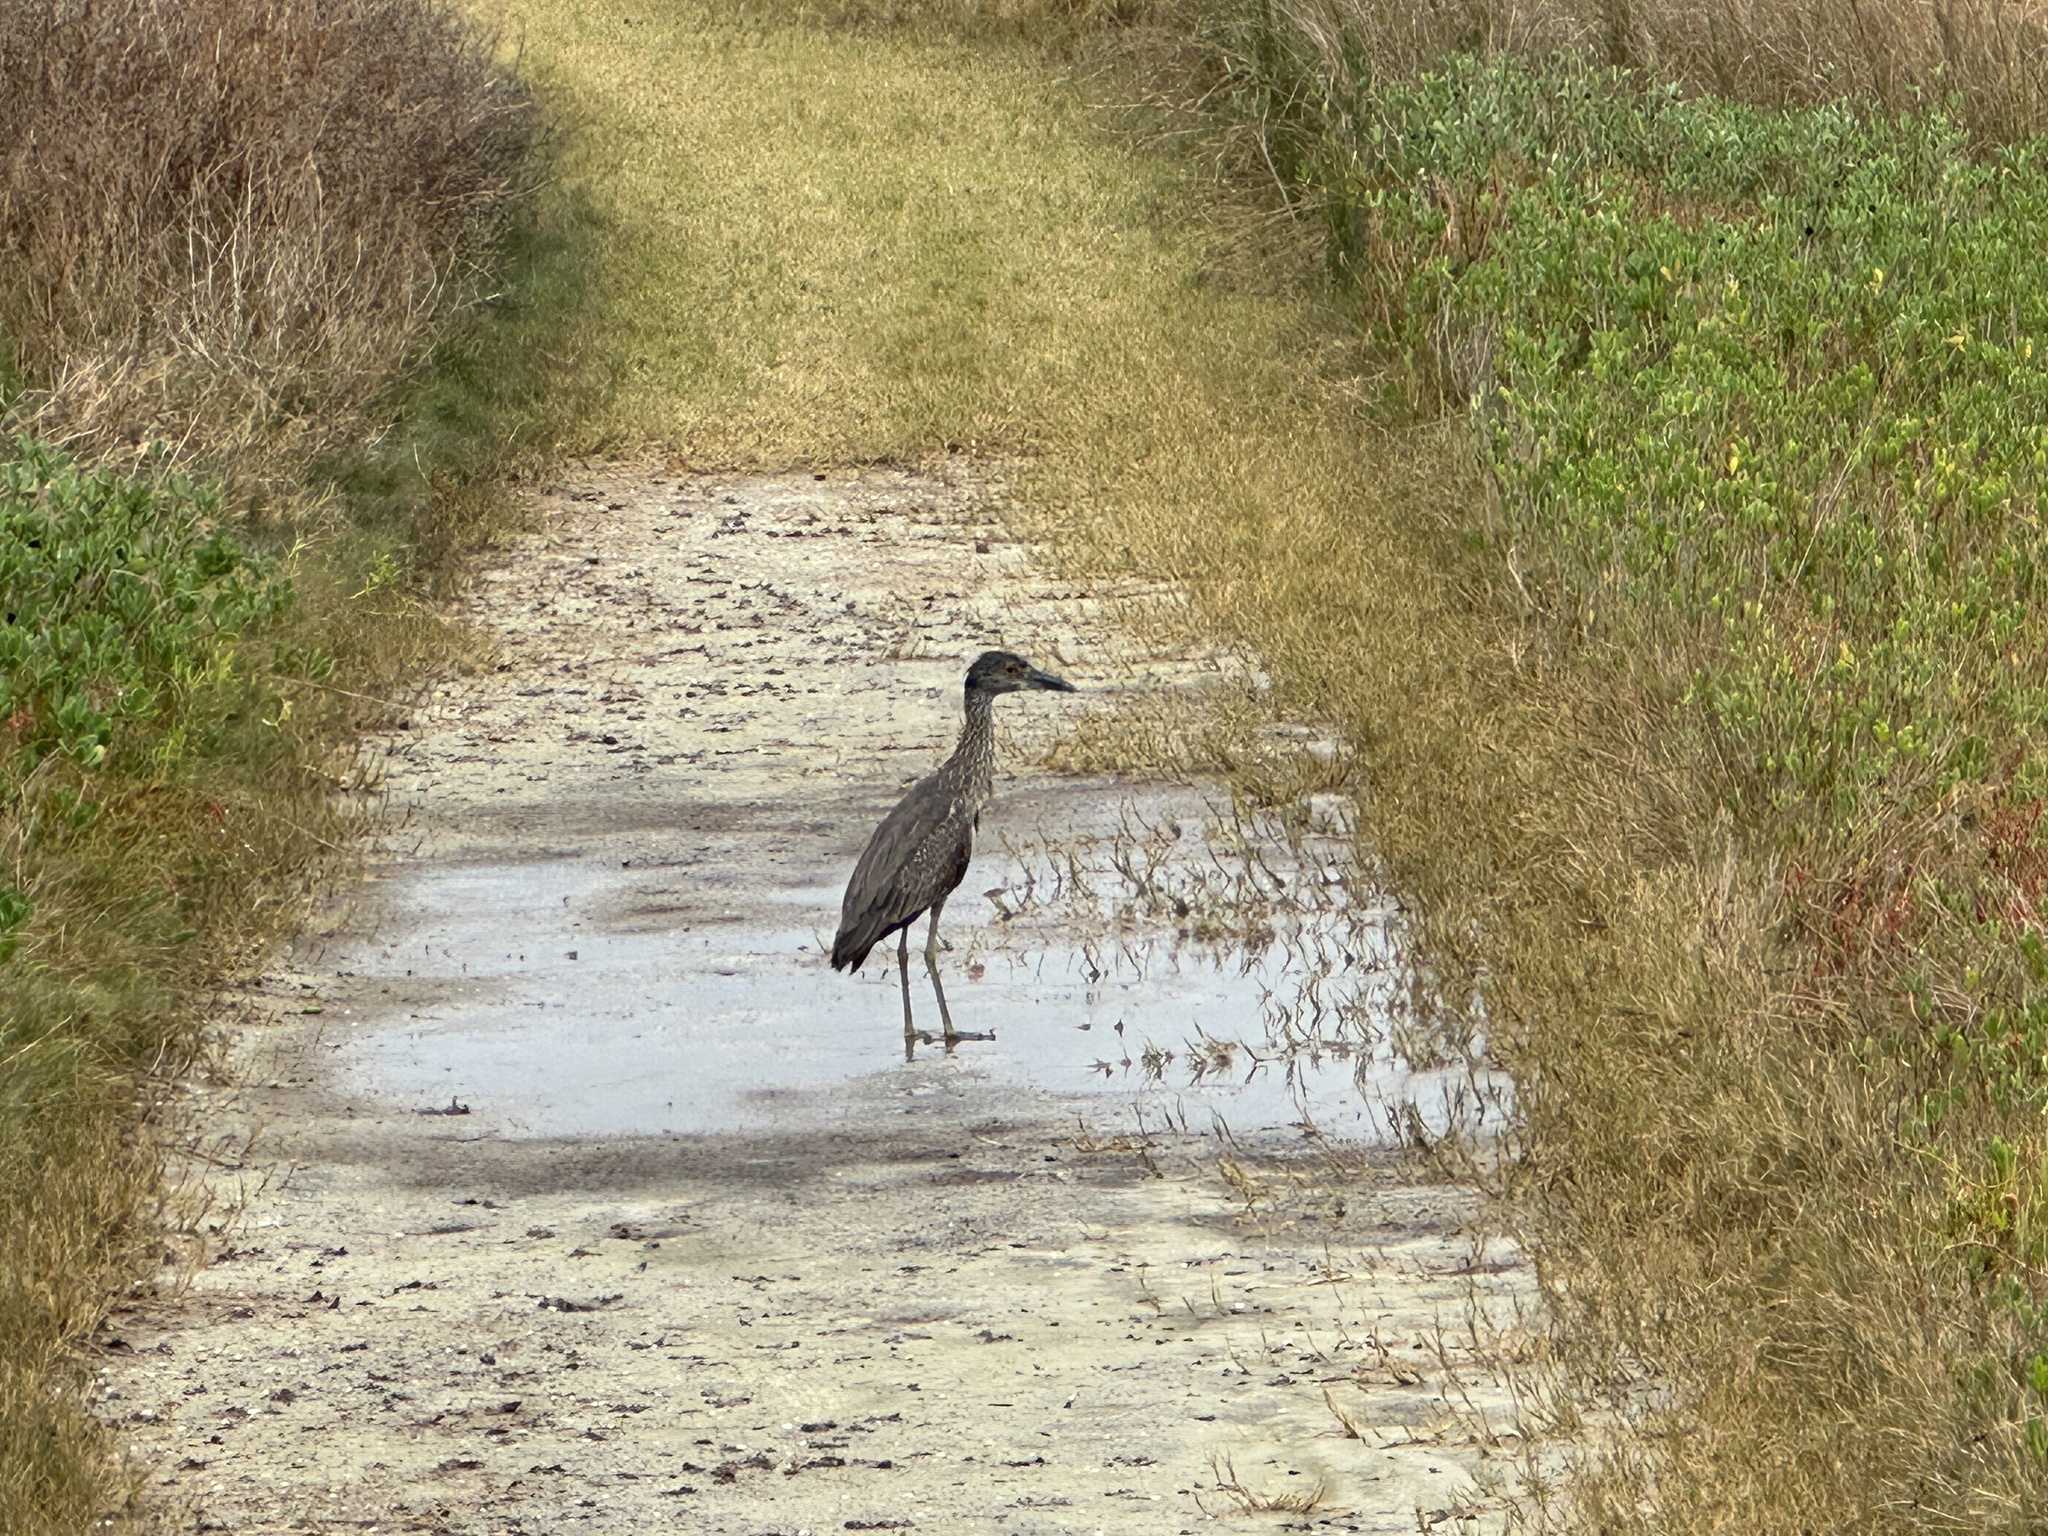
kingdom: Animalia
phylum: Chordata
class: Aves
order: Pelecaniformes
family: Ardeidae
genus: Nyctanassa
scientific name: Nyctanassa violacea
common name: Yellow-crowned night heron
